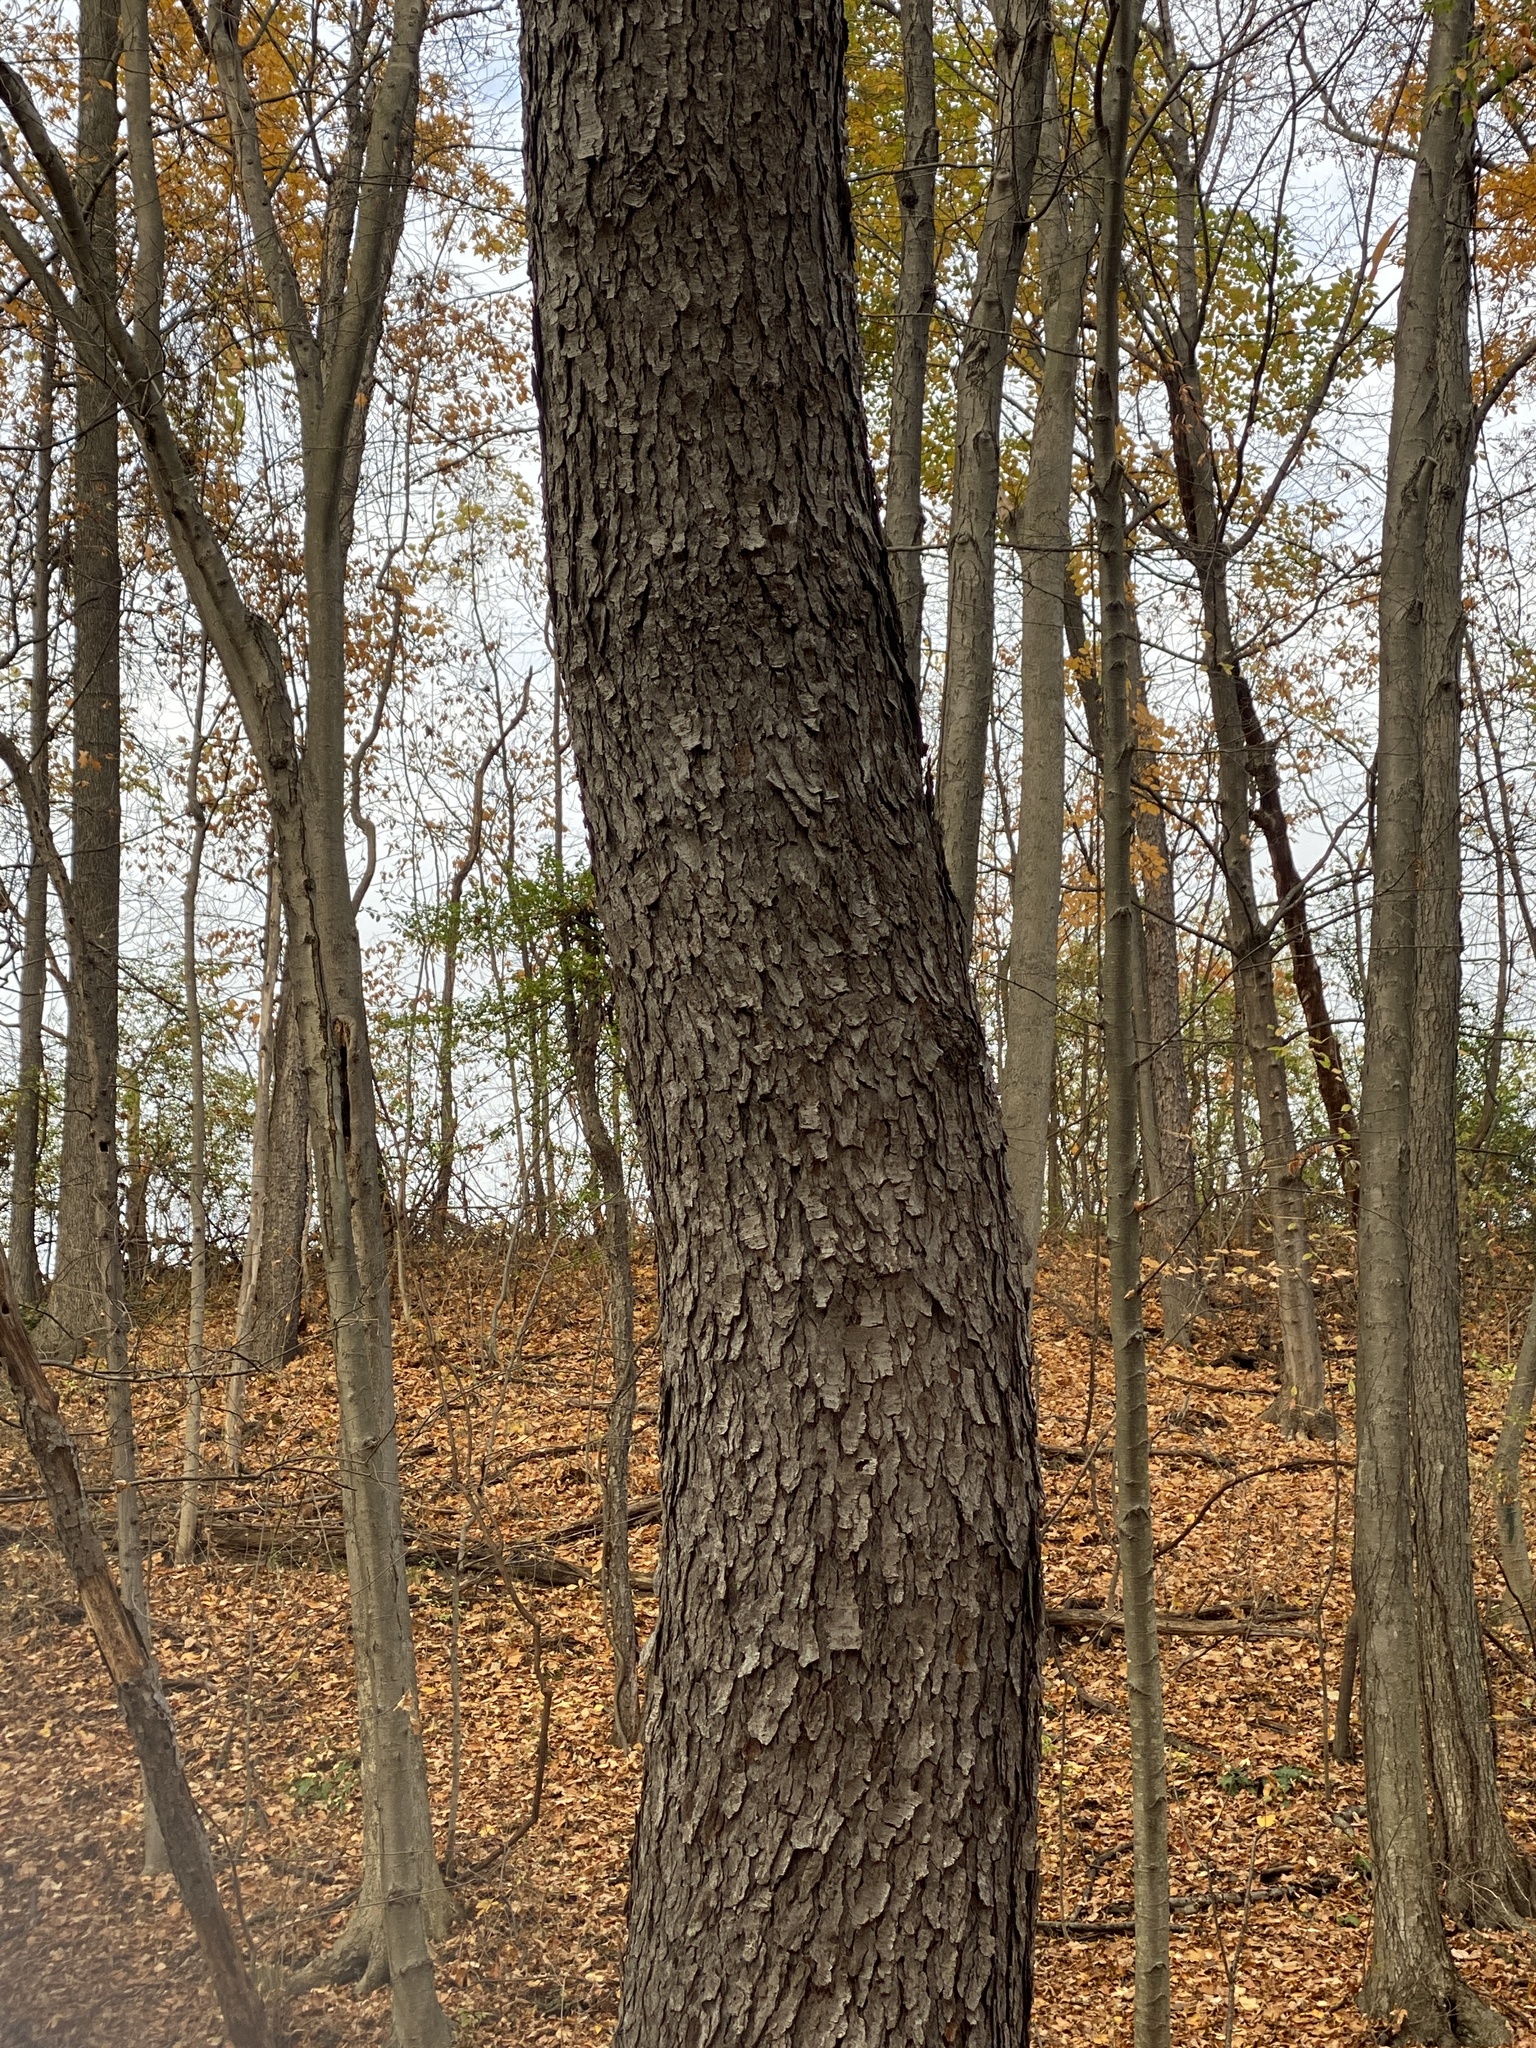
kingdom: Plantae
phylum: Tracheophyta
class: Magnoliopsida
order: Rosales
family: Rosaceae
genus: Prunus
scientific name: Prunus serotina
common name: Black cherry
